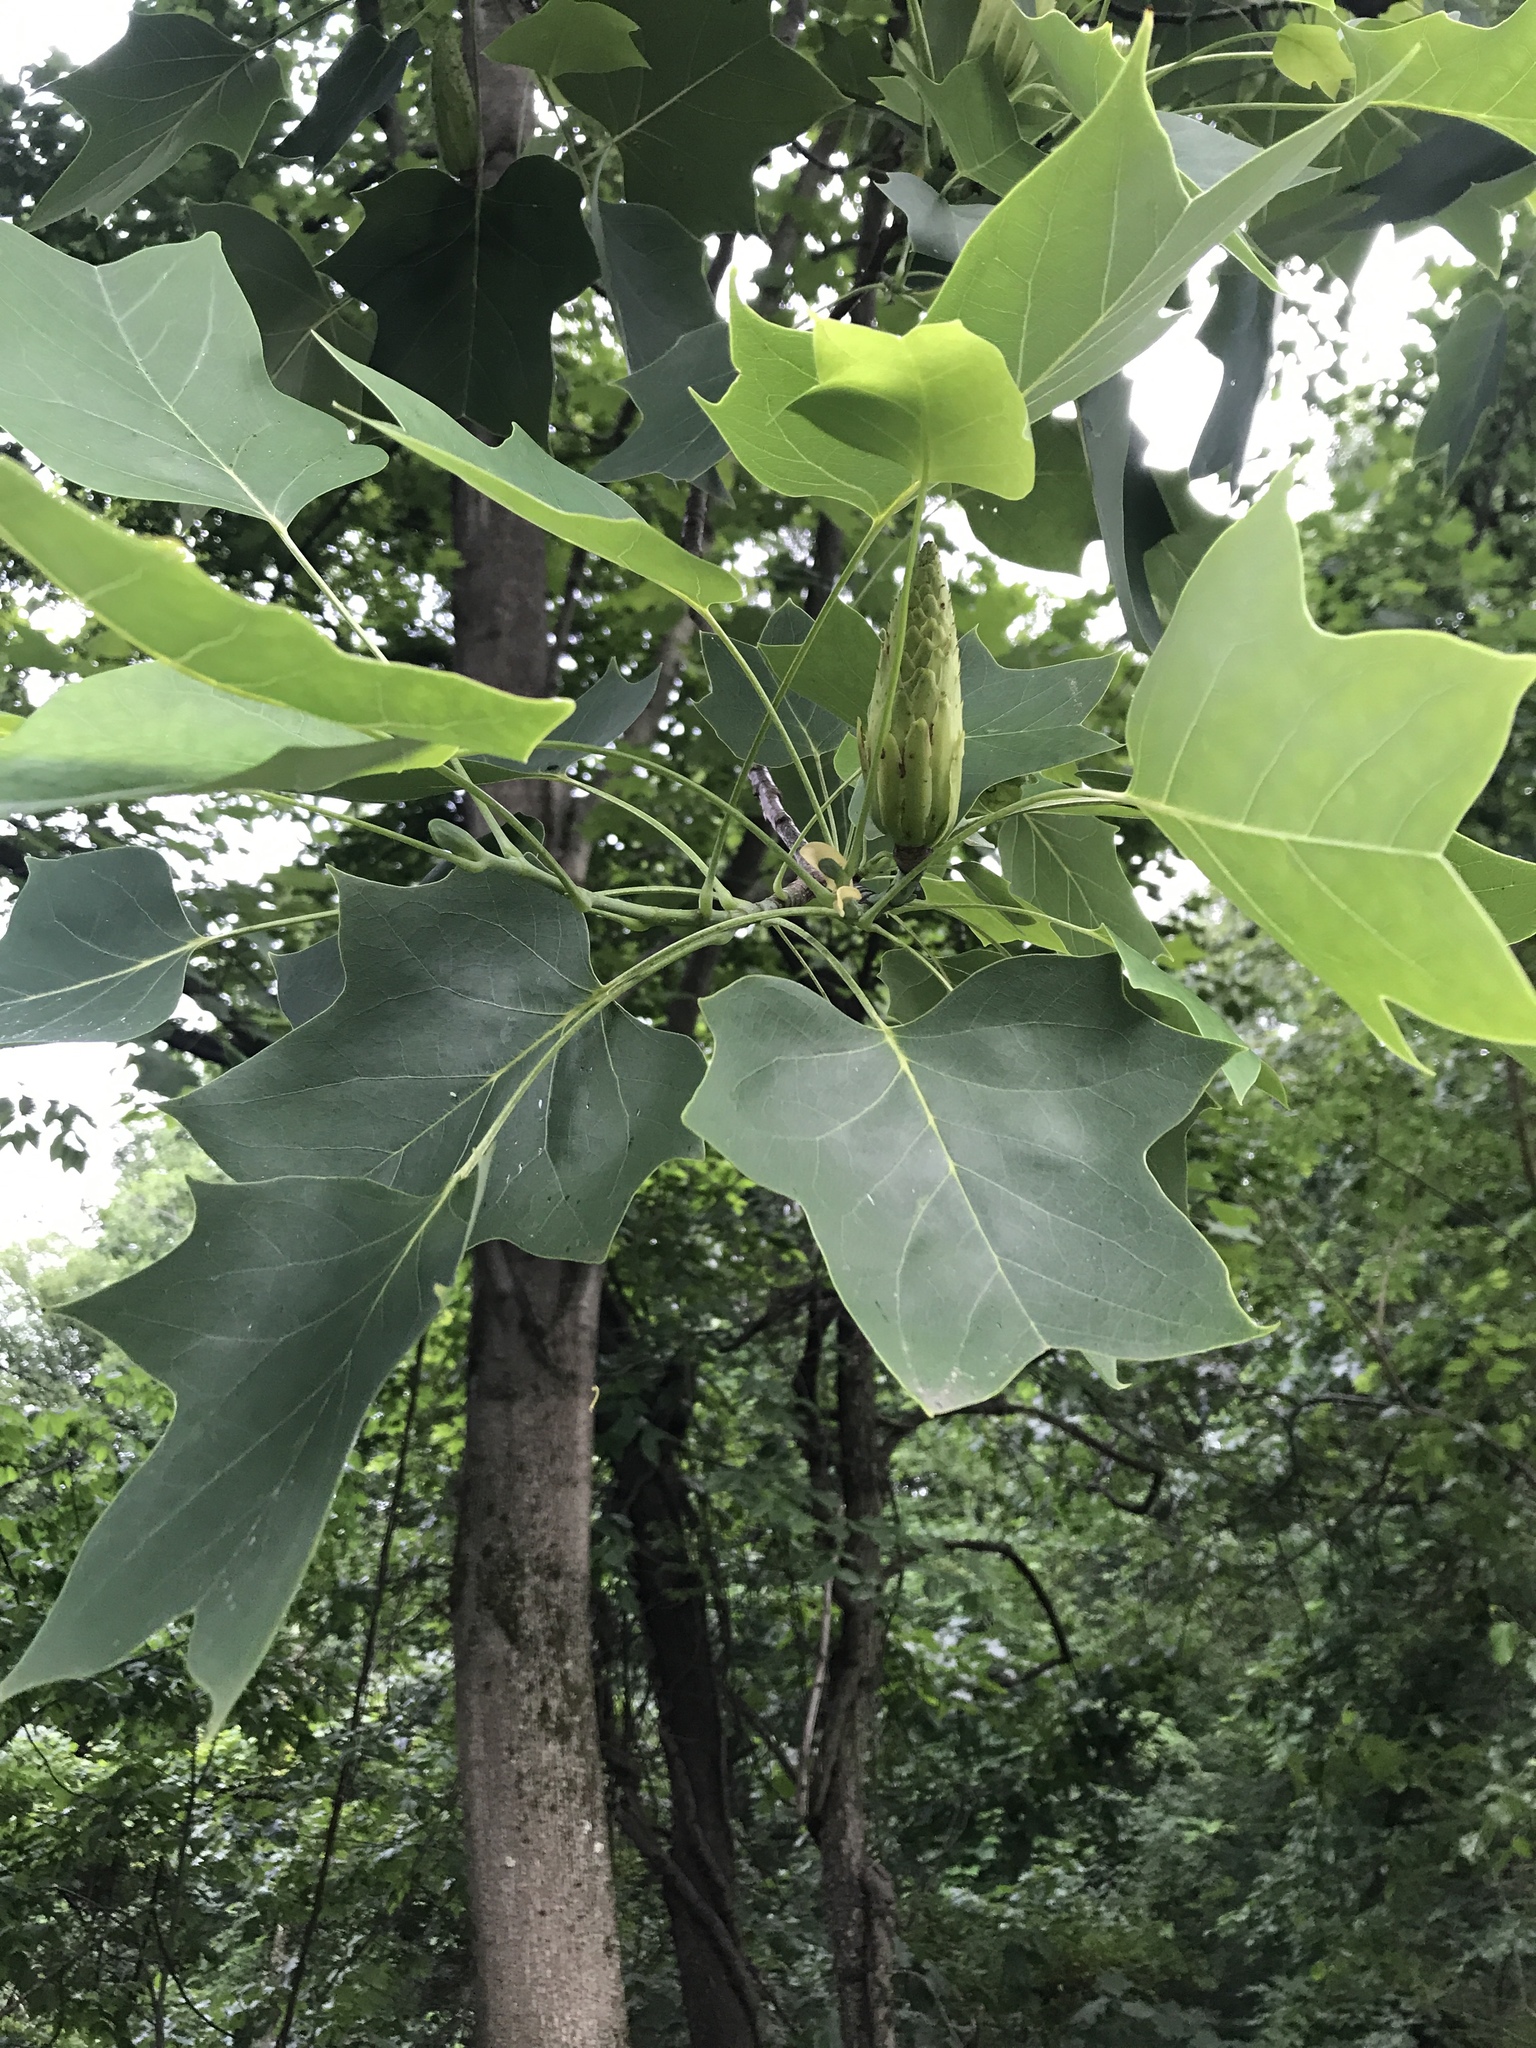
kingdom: Plantae
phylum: Tracheophyta
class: Magnoliopsida
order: Magnoliales
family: Magnoliaceae
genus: Liriodendron
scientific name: Liriodendron tulipifera
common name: Tulip tree
